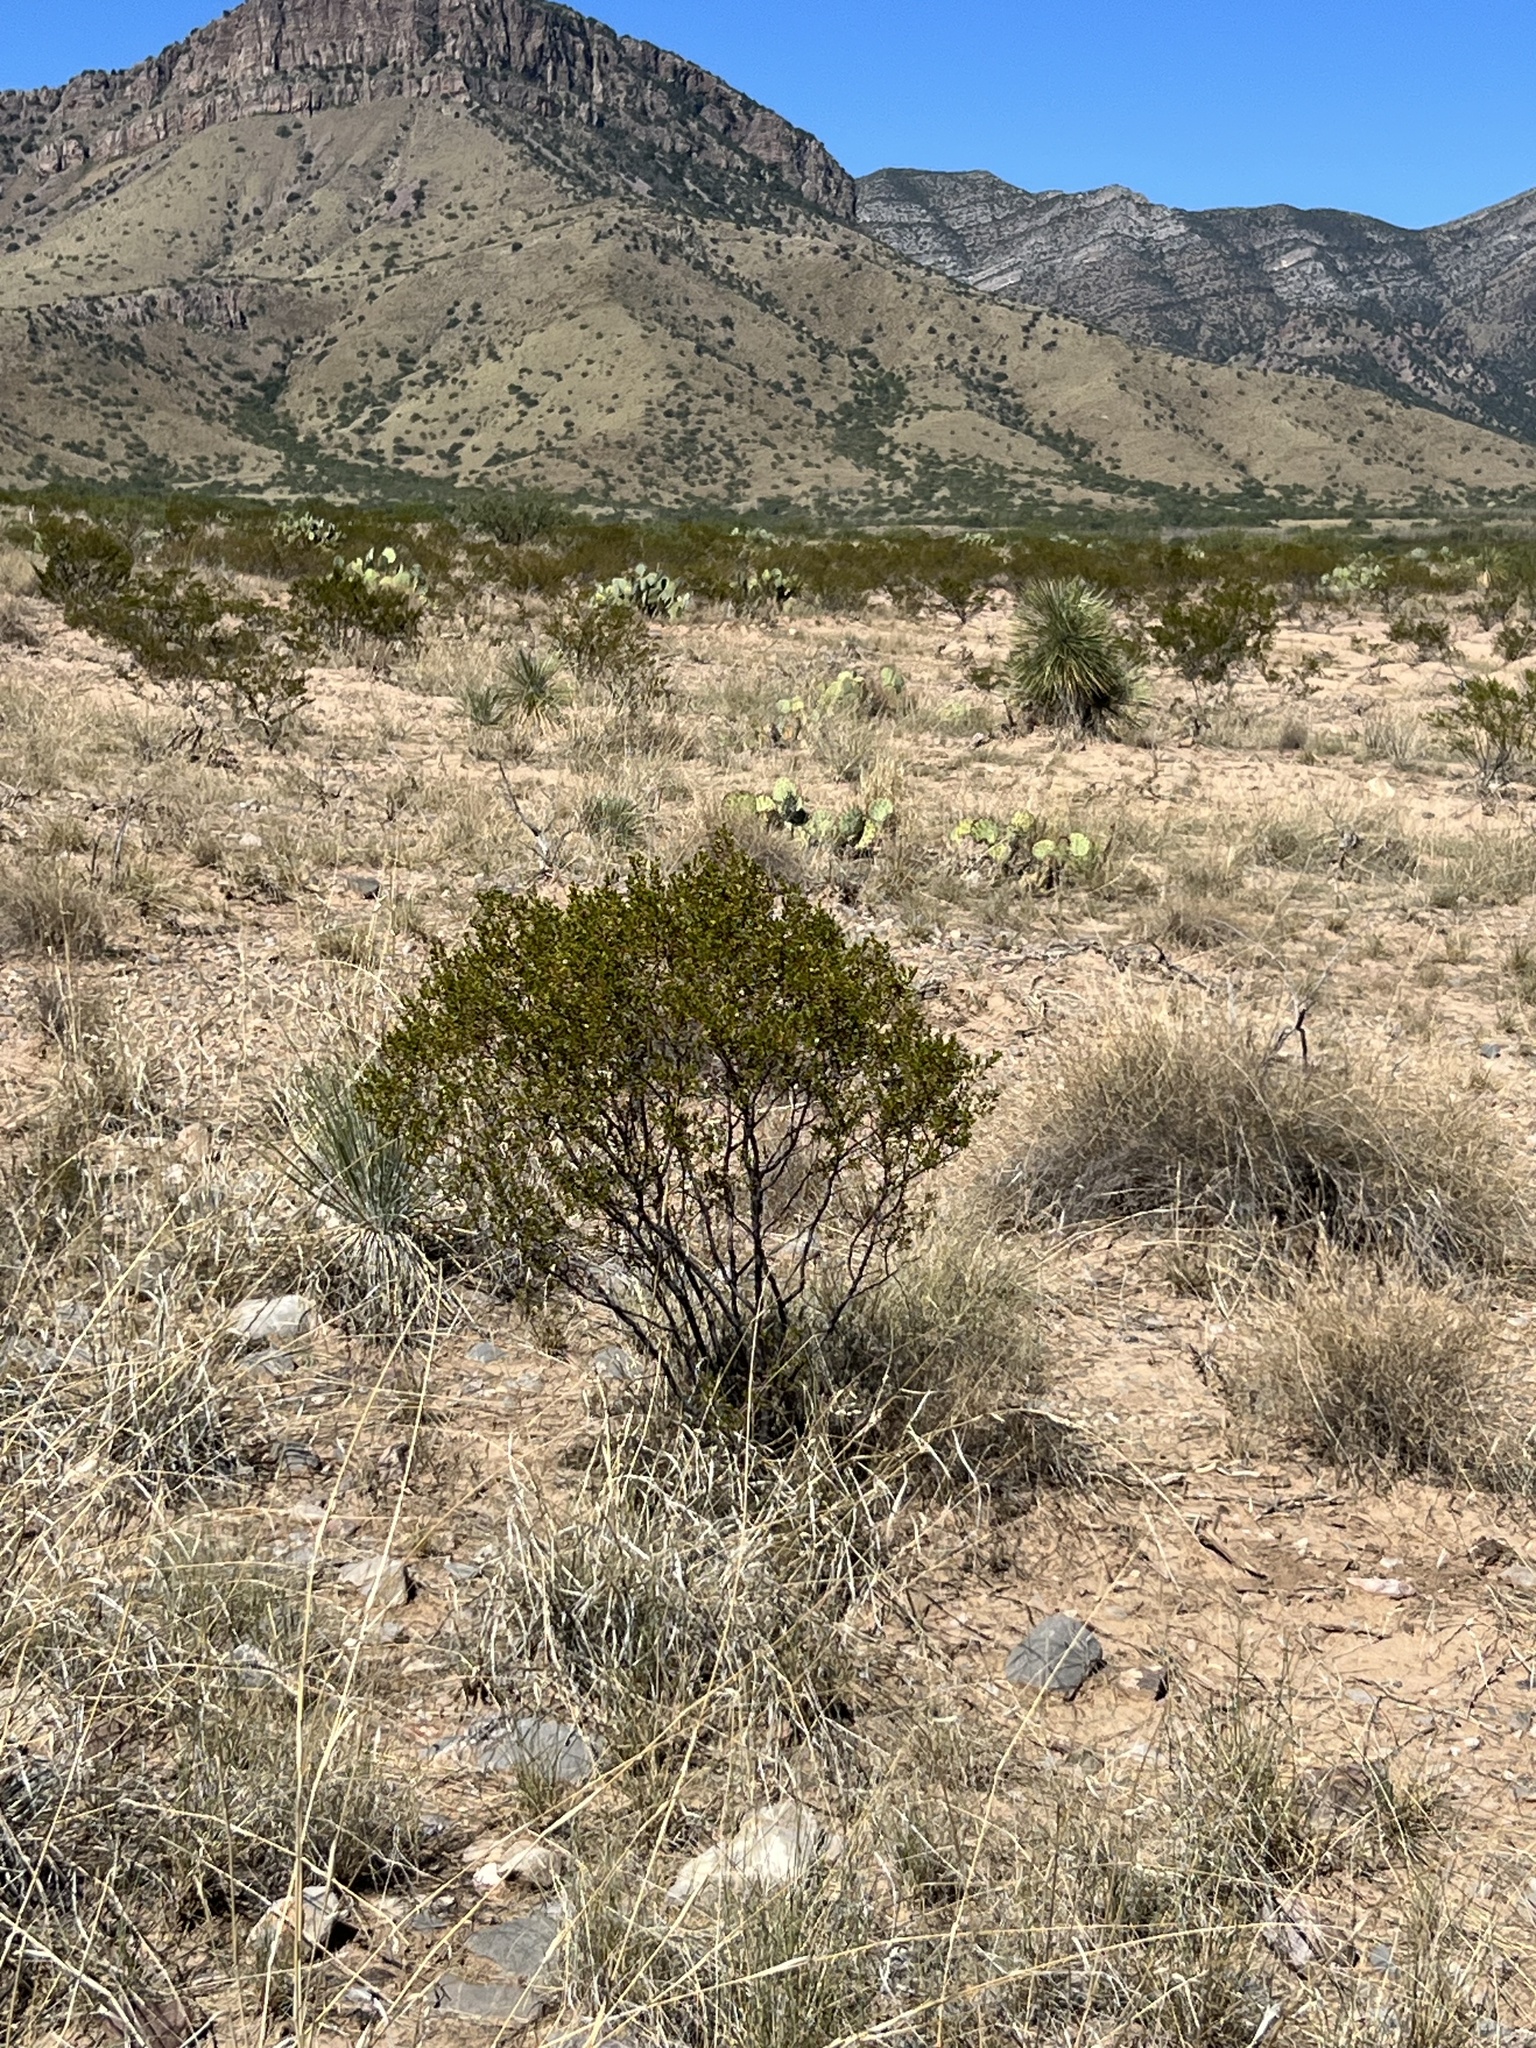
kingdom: Plantae
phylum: Tracheophyta
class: Magnoliopsida
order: Zygophyllales
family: Zygophyllaceae
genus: Larrea
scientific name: Larrea tridentata
